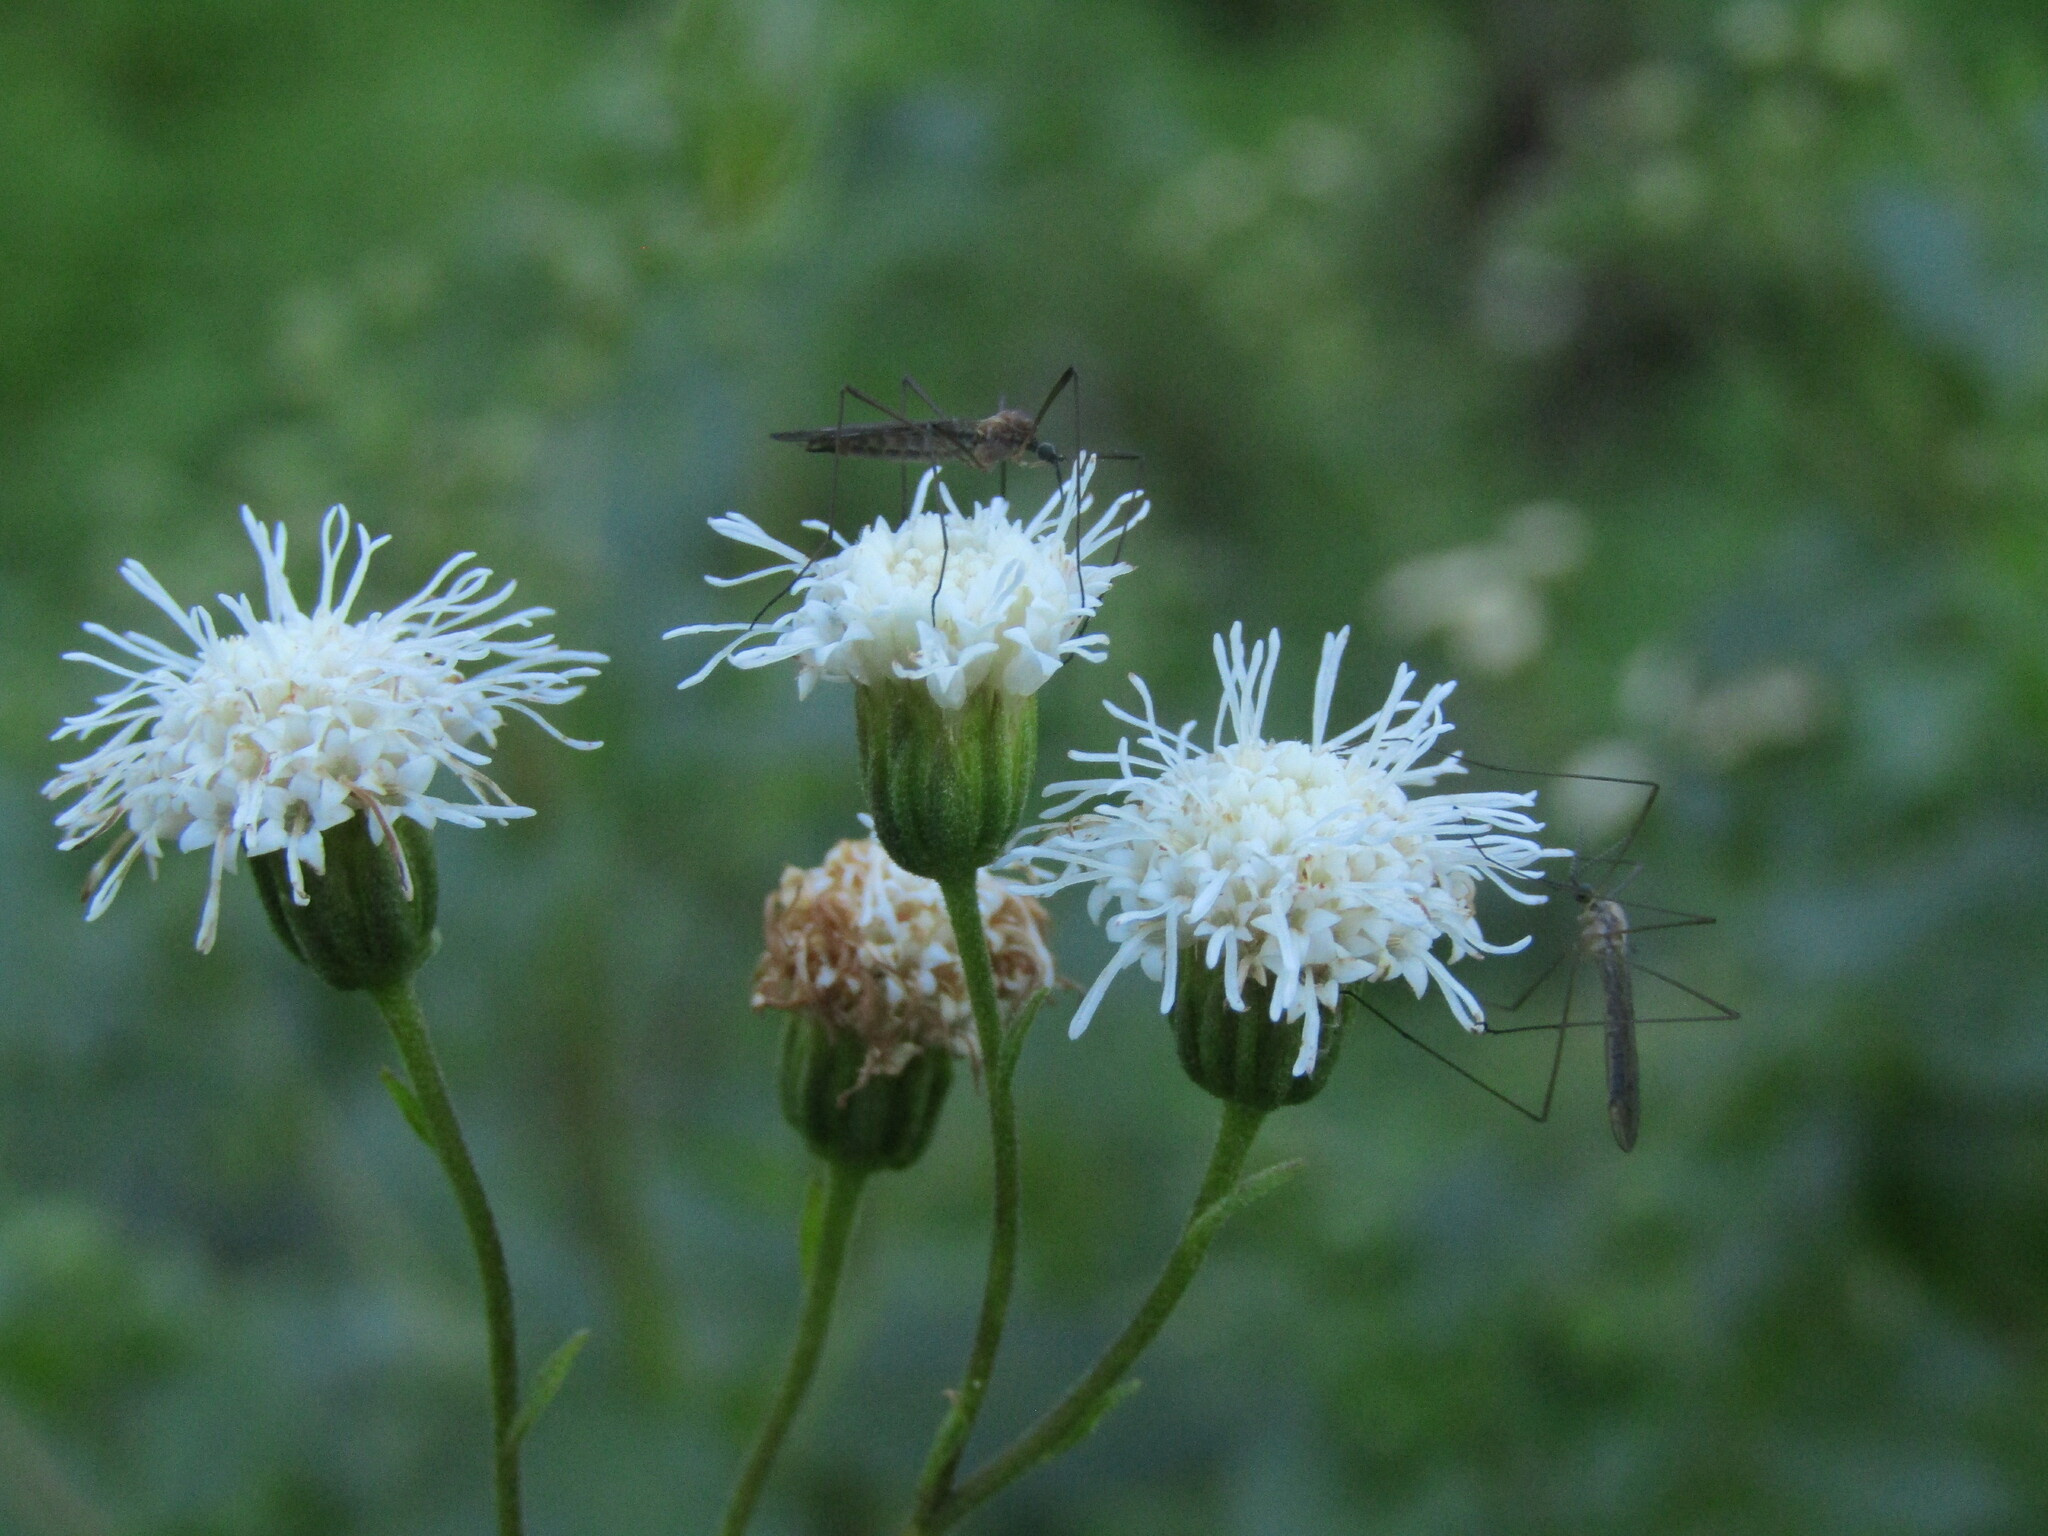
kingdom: Plantae
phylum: Tracheophyta
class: Magnoliopsida
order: Asterales
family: Asteraceae
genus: Ageratina
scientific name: Ageratina glechonophylla
